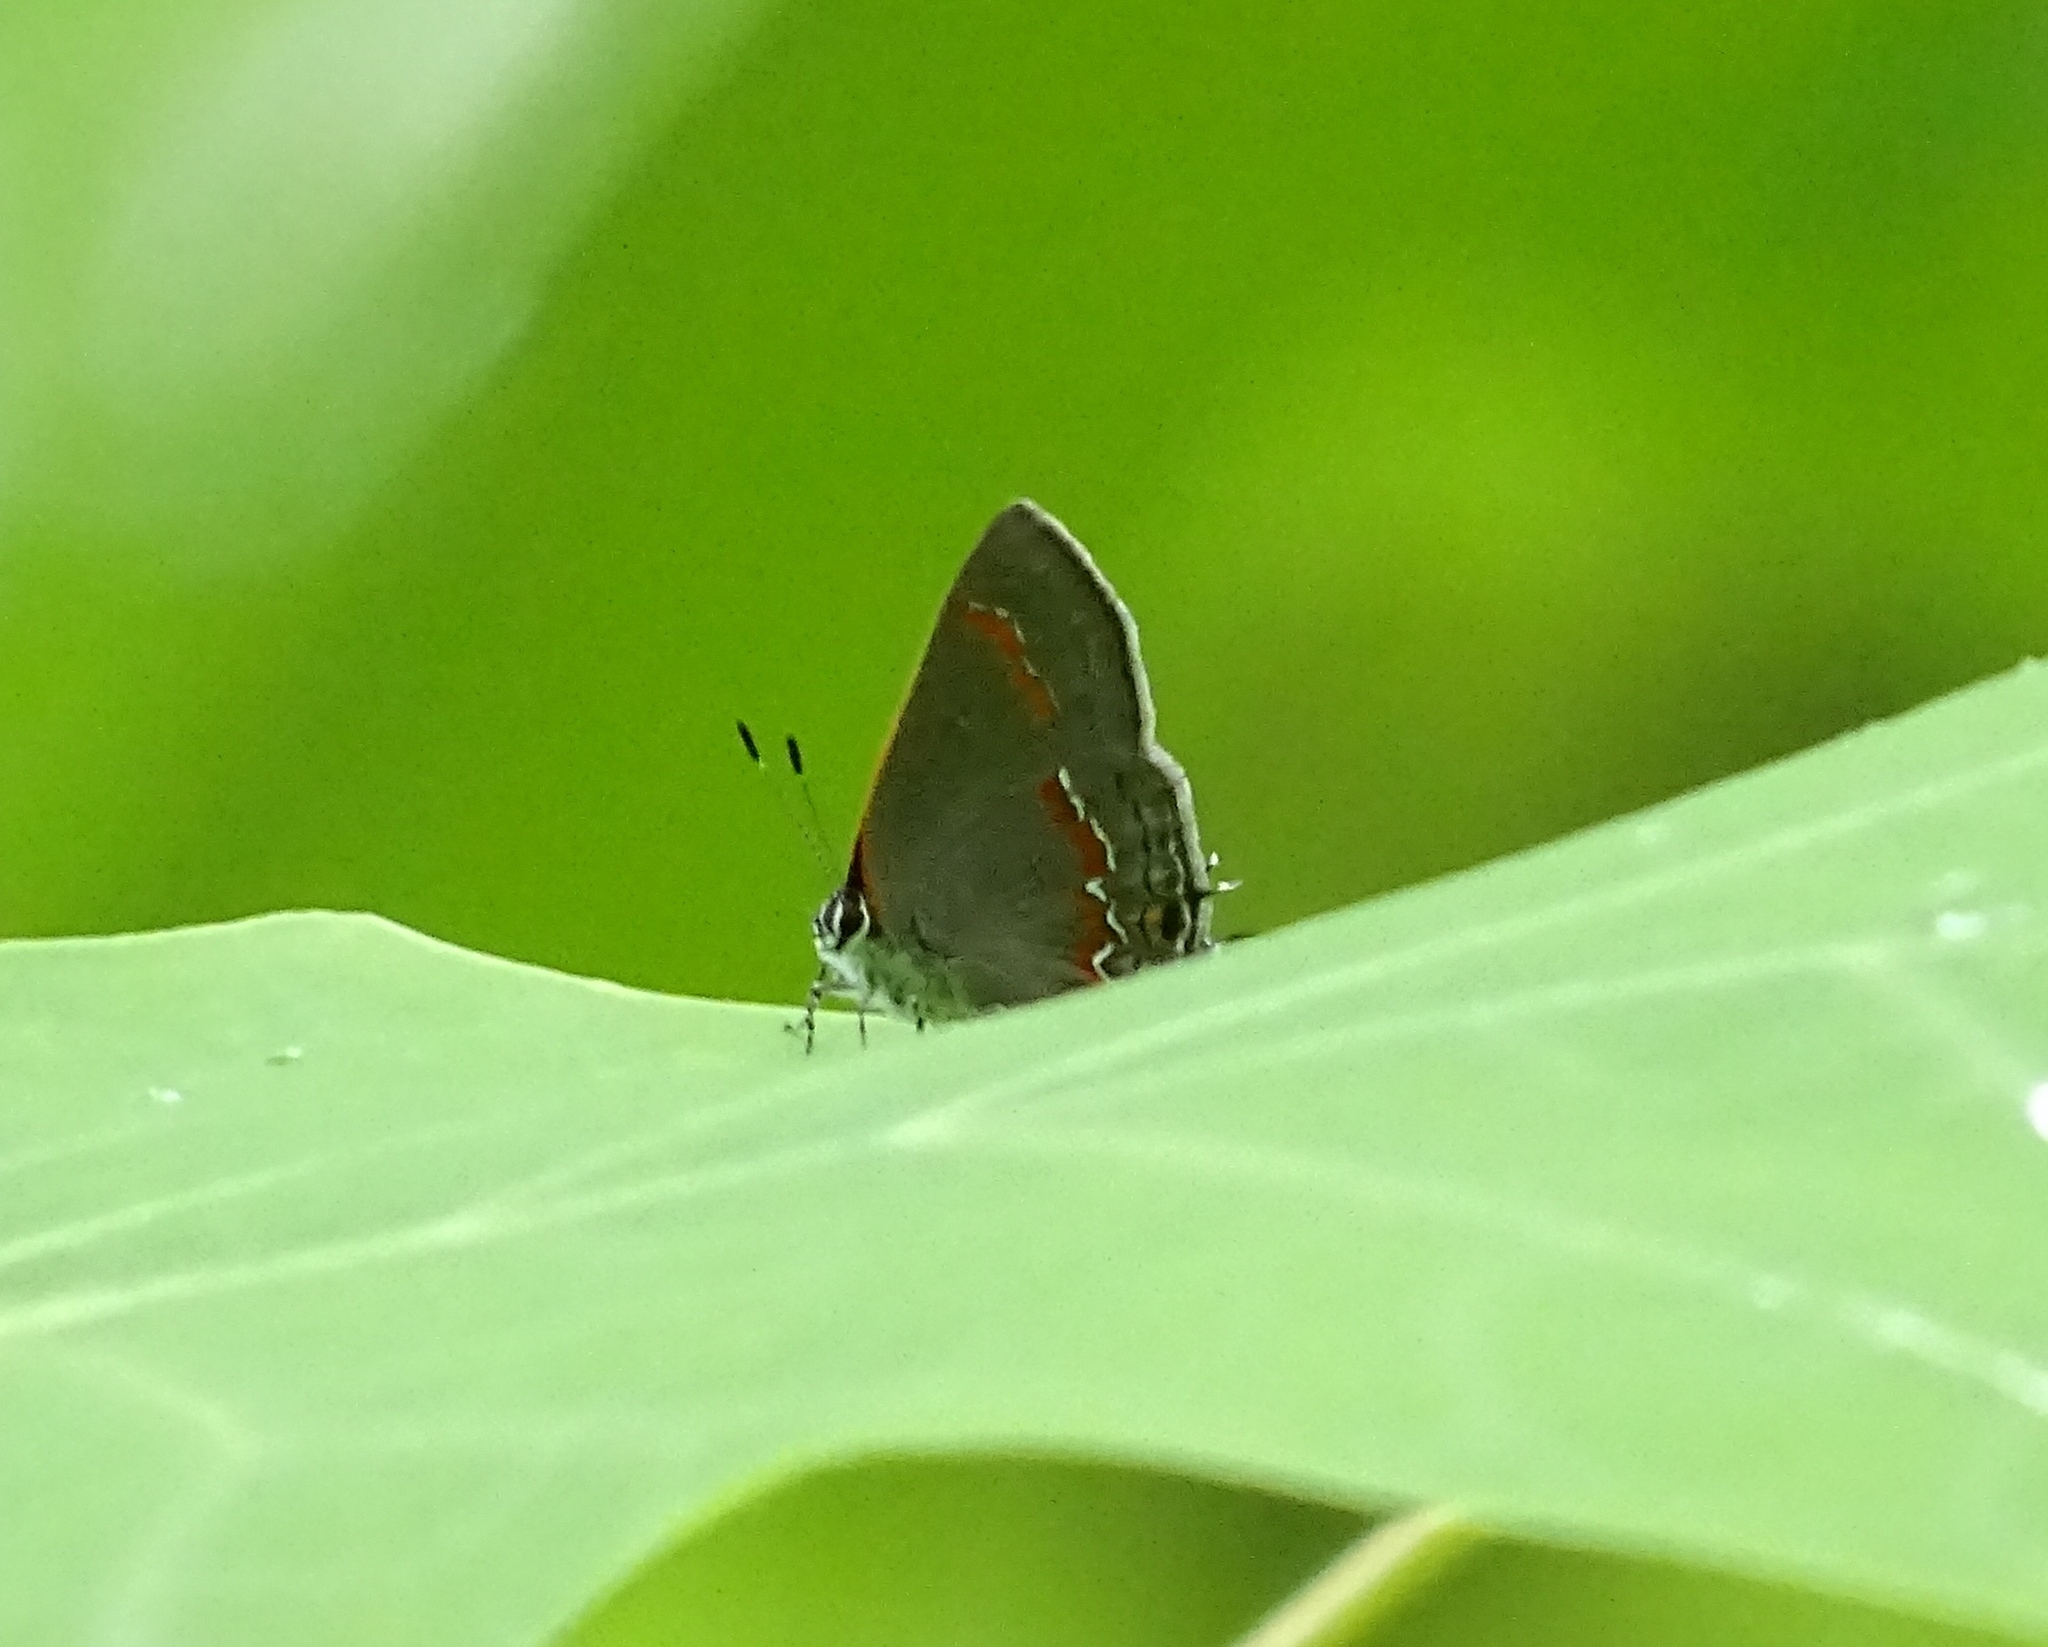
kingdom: Animalia
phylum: Arthropoda
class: Insecta
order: Lepidoptera
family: Lycaenidae
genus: Calycopis
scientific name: Calycopis cecrops
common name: Red-banded hairstreak
